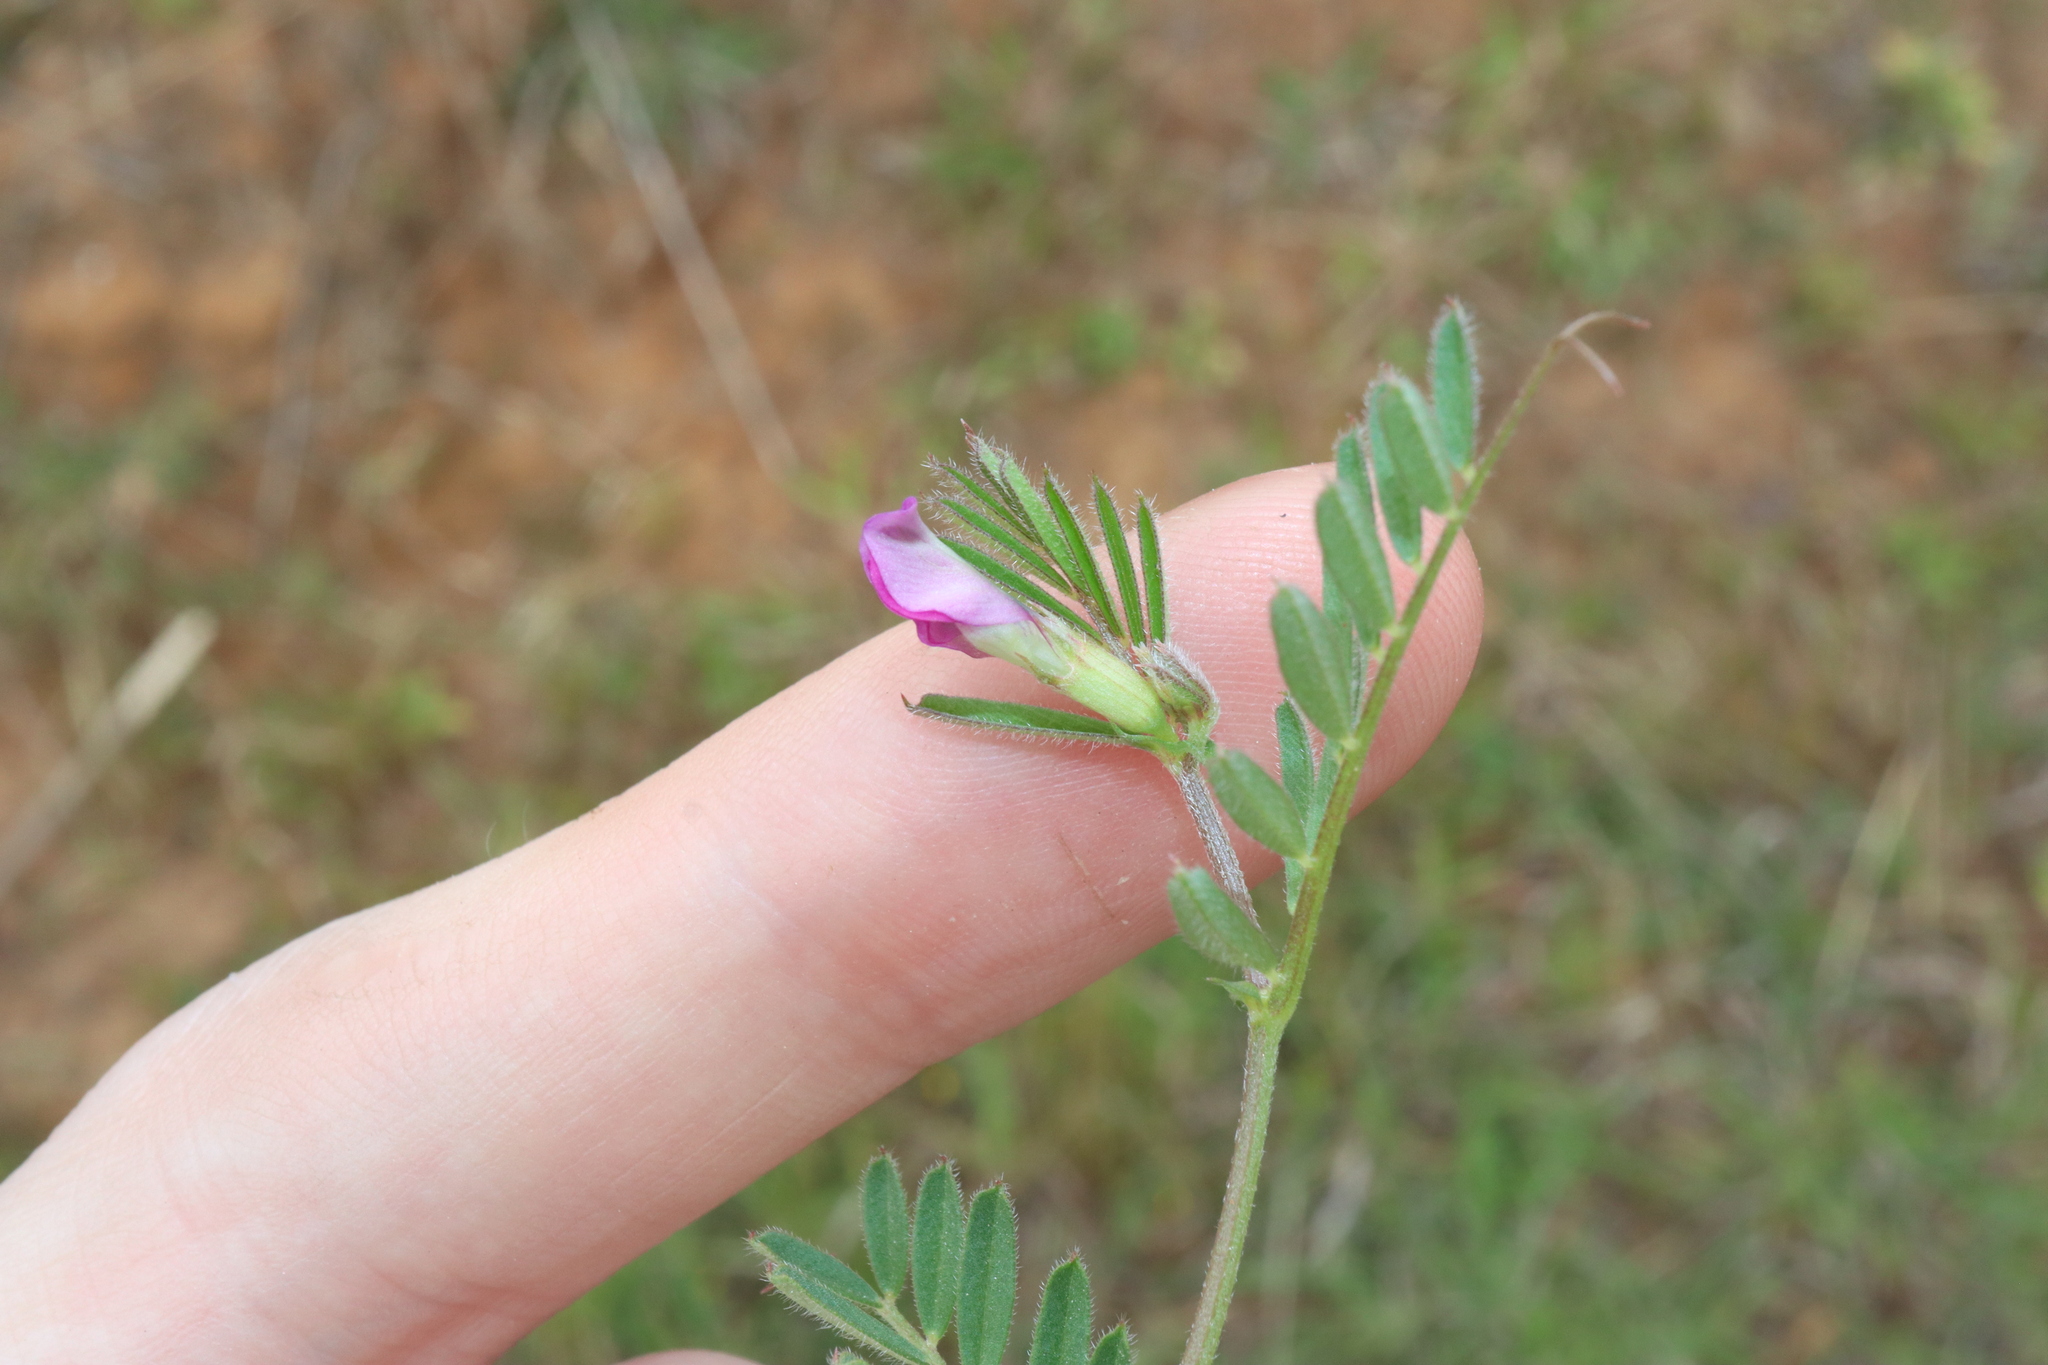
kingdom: Plantae
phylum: Tracheophyta
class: Magnoliopsida
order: Fabales
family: Fabaceae
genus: Vicia
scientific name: Vicia sativa
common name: Garden vetch
